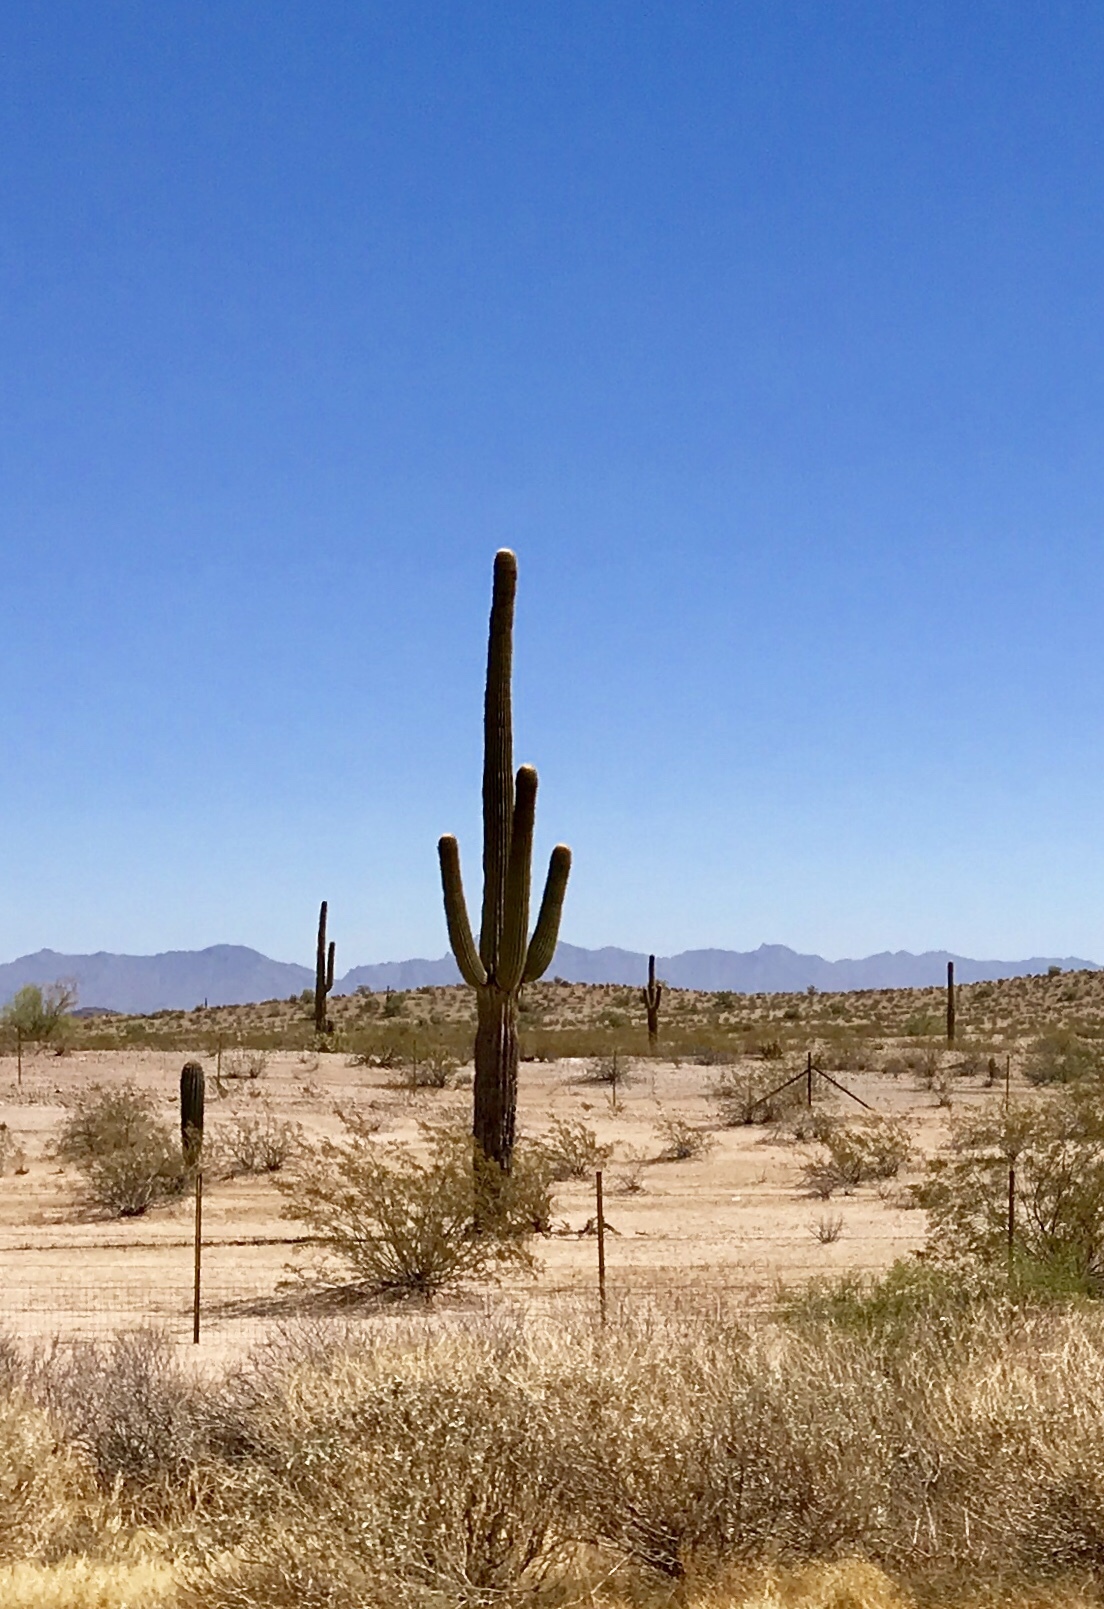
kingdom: Plantae
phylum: Tracheophyta
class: Magnoliopsida
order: Caryophyllales
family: Cactaceae
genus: Carnegiea
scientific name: Carnegiea gigantea
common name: Saguaro
